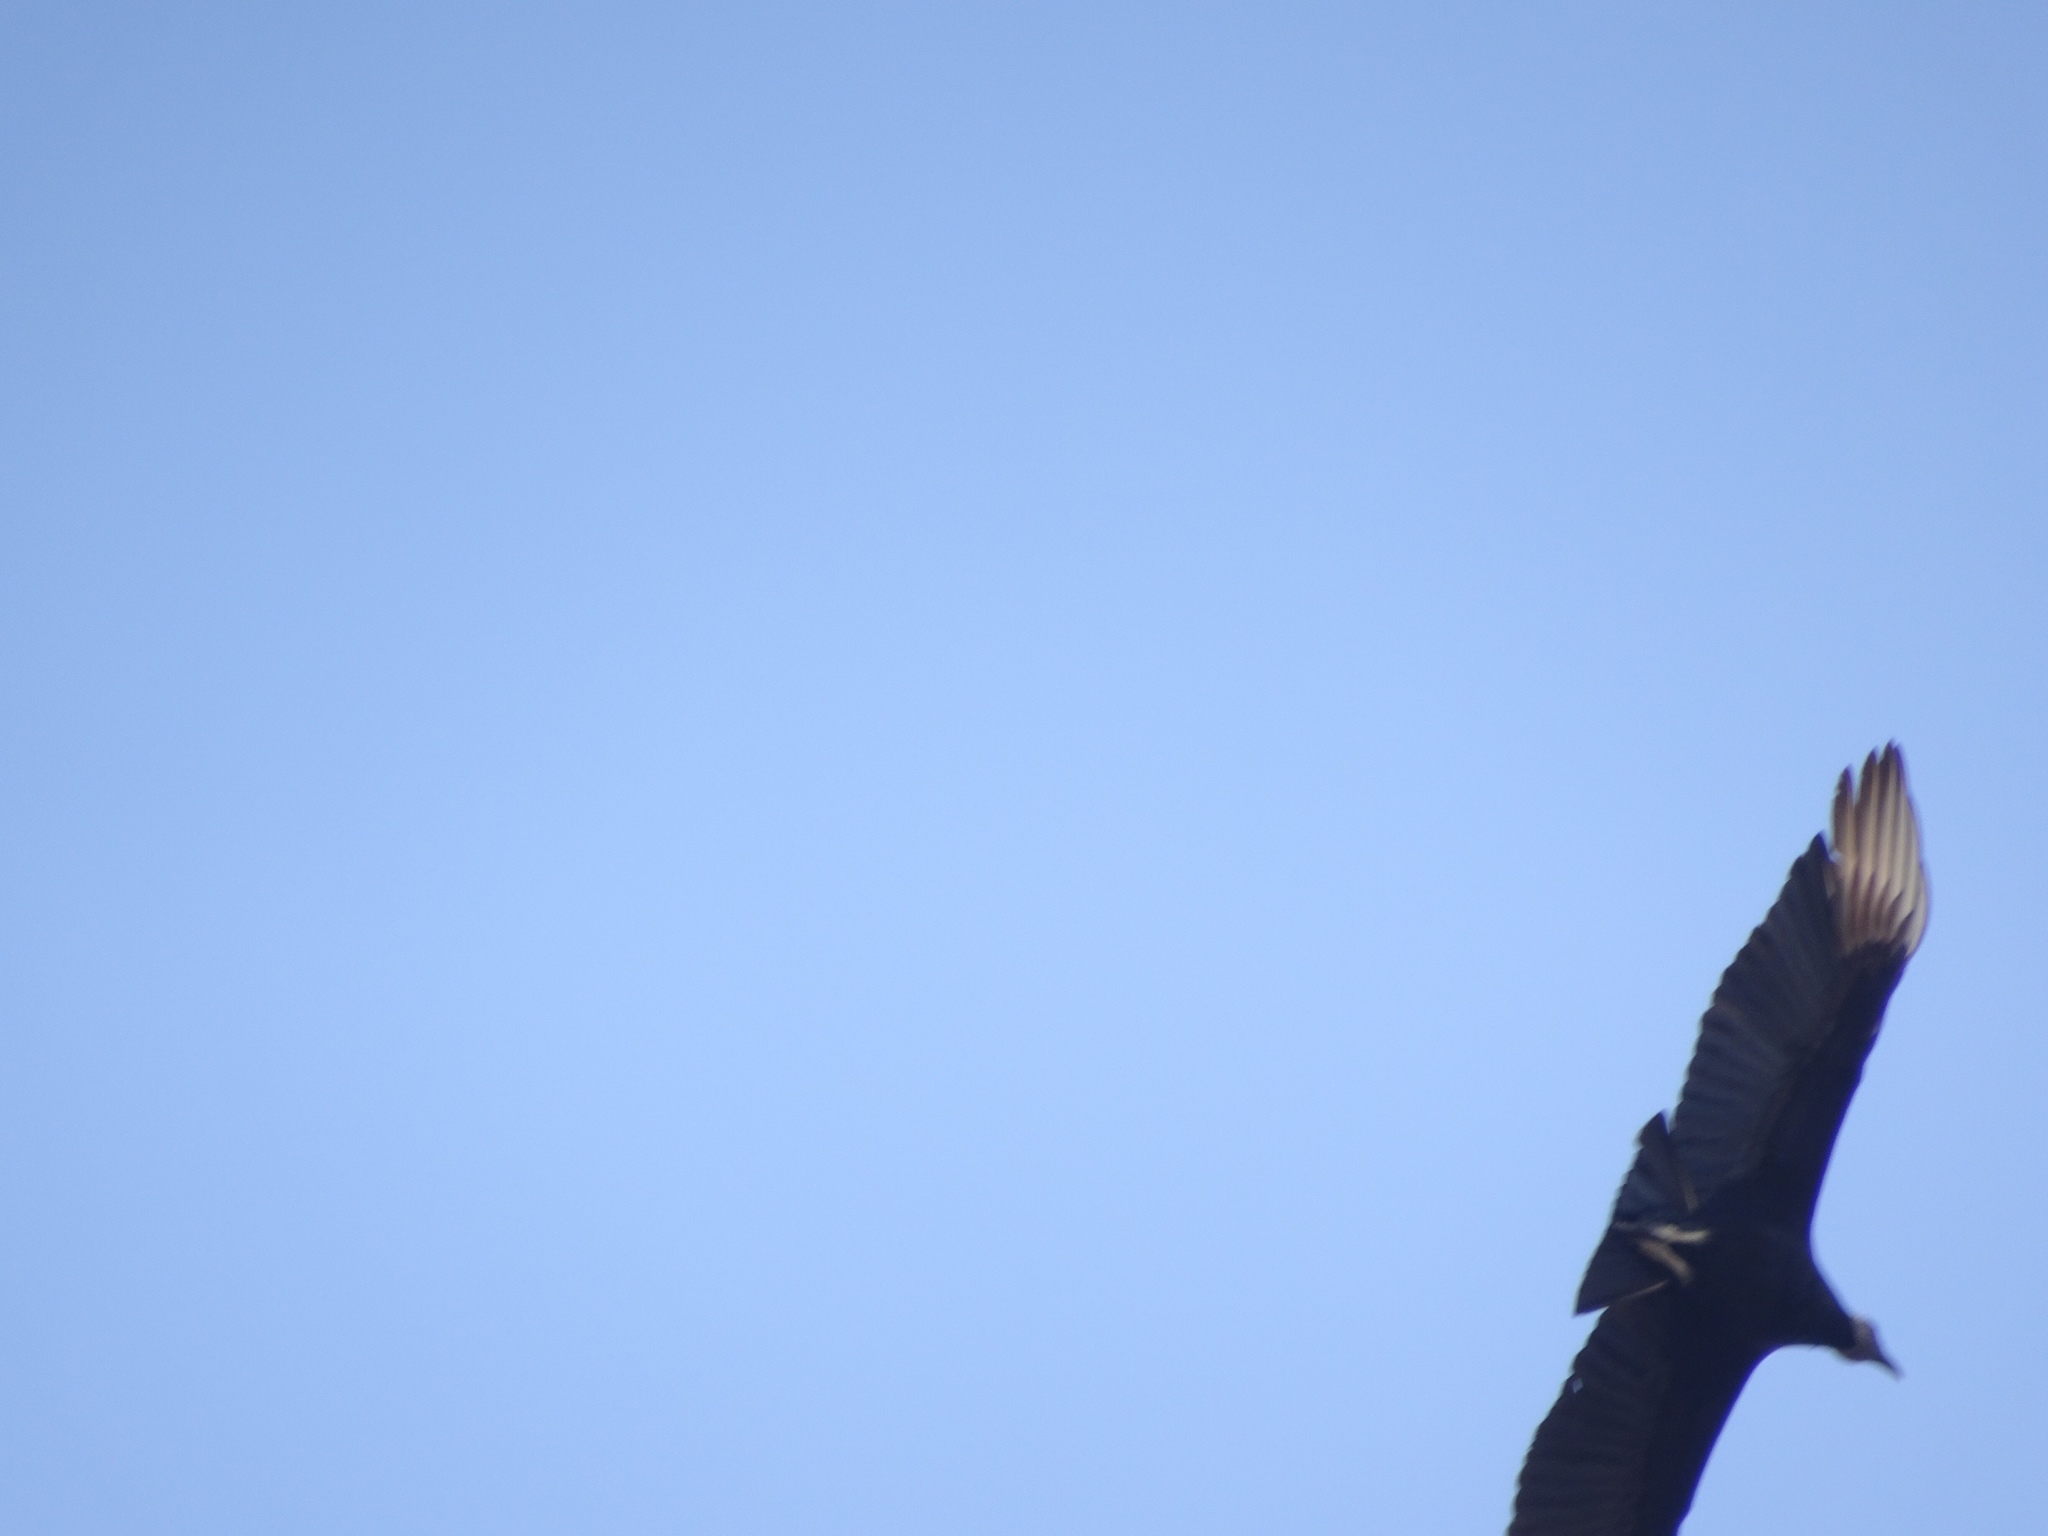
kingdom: Animalia
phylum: Chordata
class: Aves
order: Accipitriformes
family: Cathartidae
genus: Coragyps
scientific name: Coragyps atratus
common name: Black vulture
